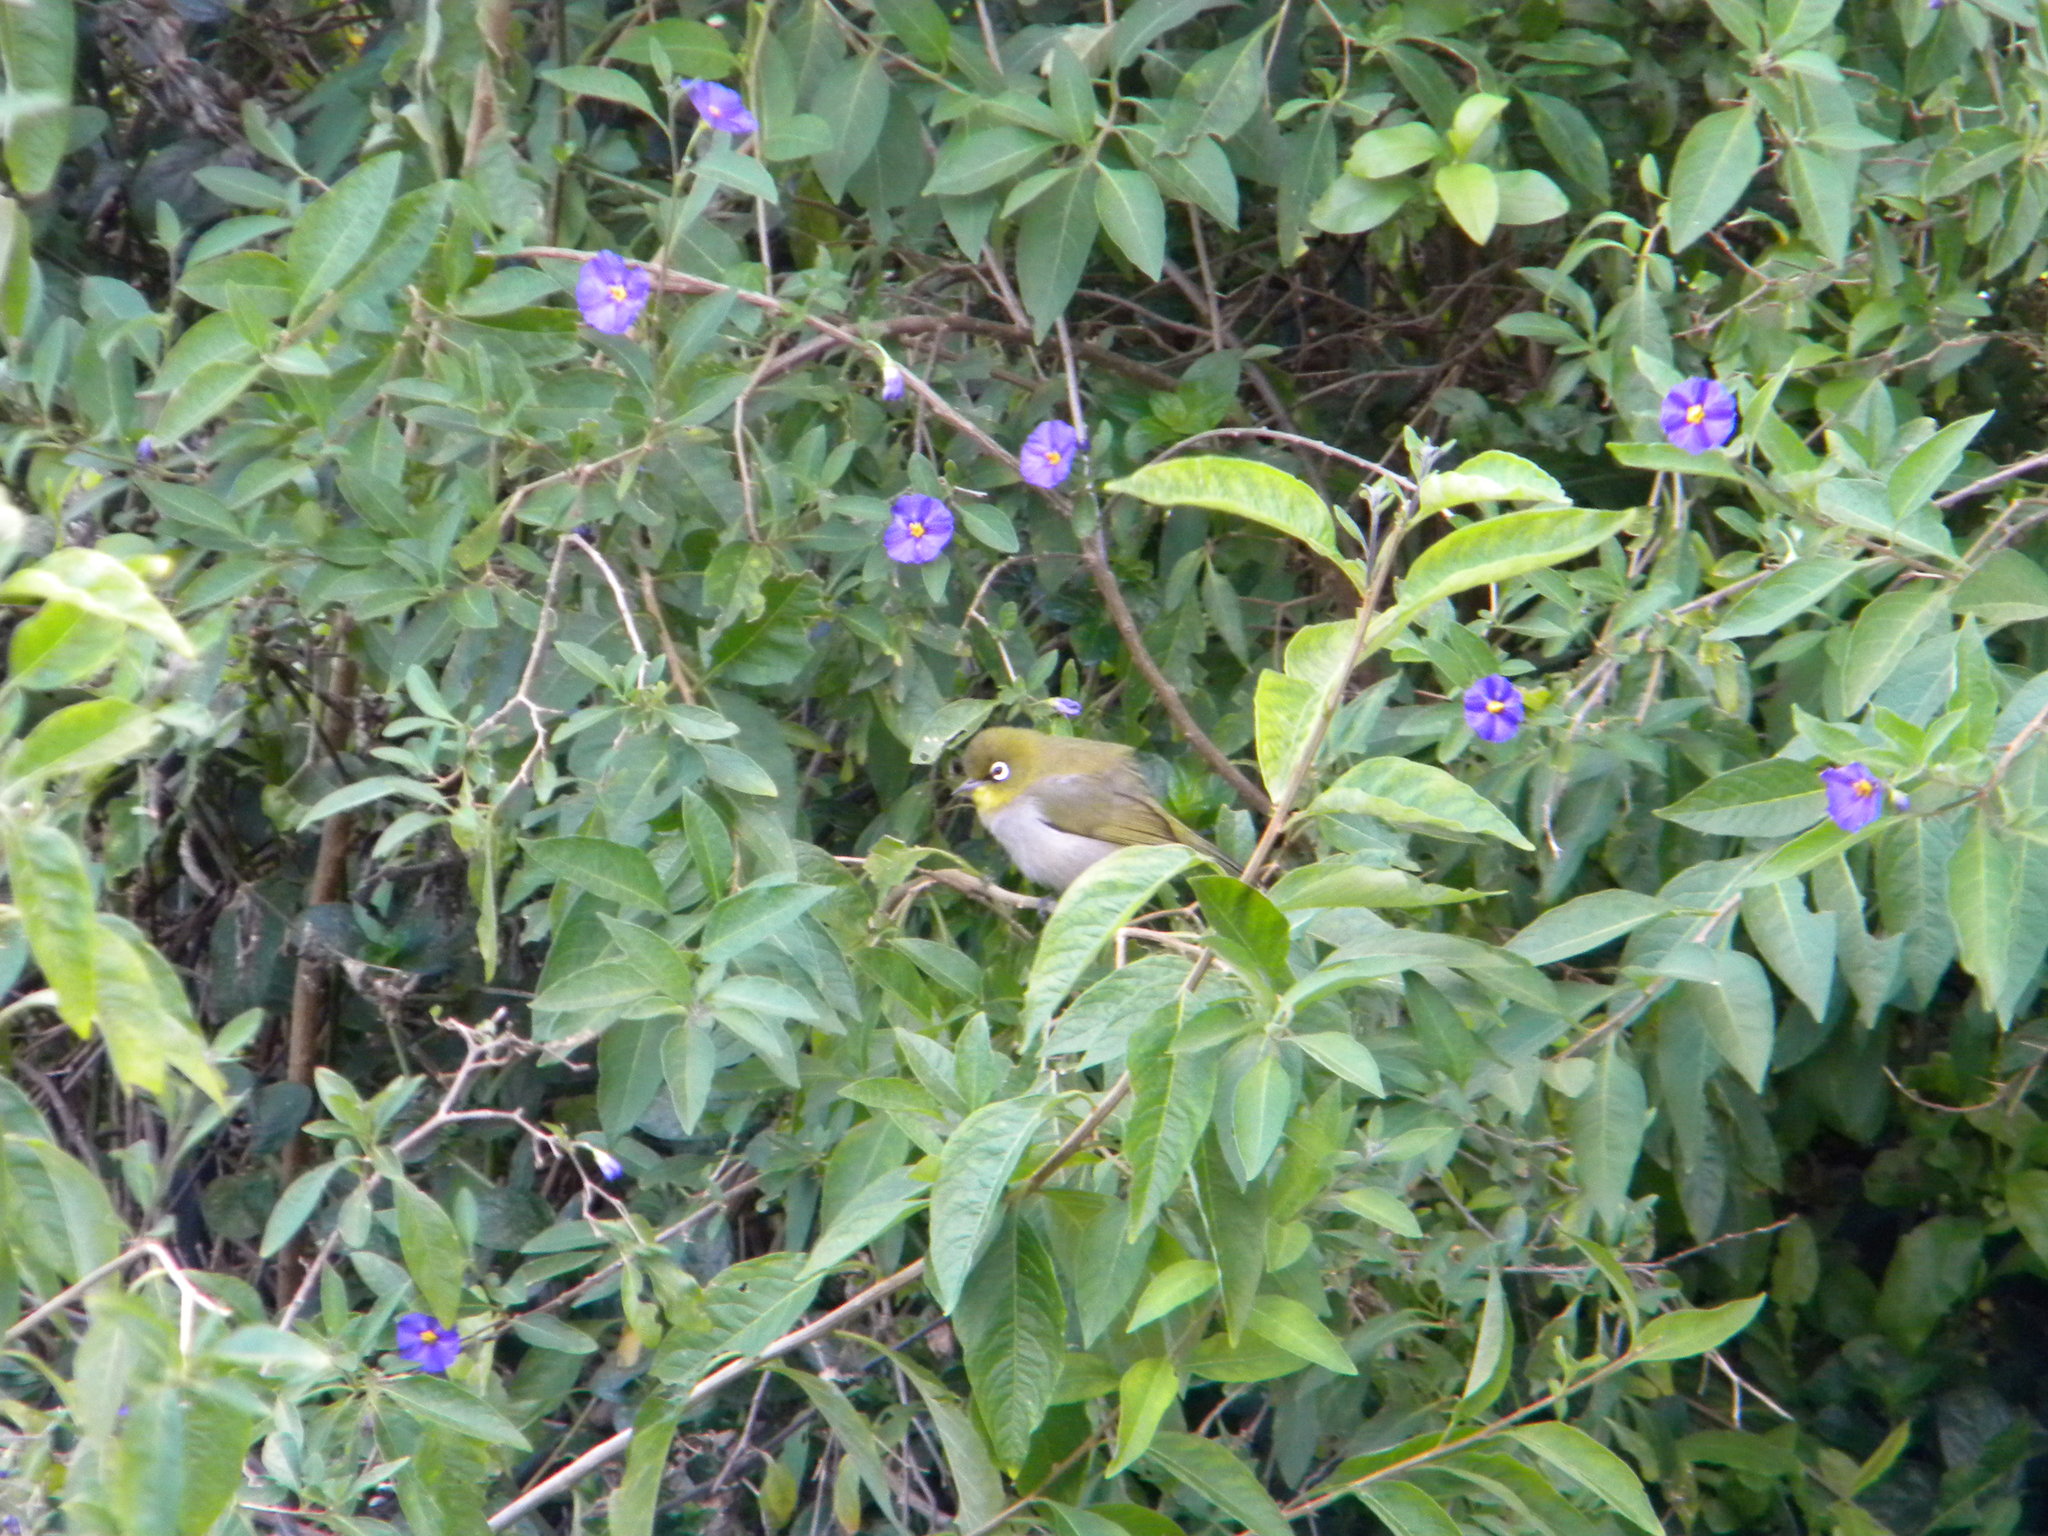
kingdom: Animalia
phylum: Chordata
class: Aves
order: Passeriformes
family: Zosteropidae
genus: Zosterops
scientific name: Zosterops virens
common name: Cape white-eye
